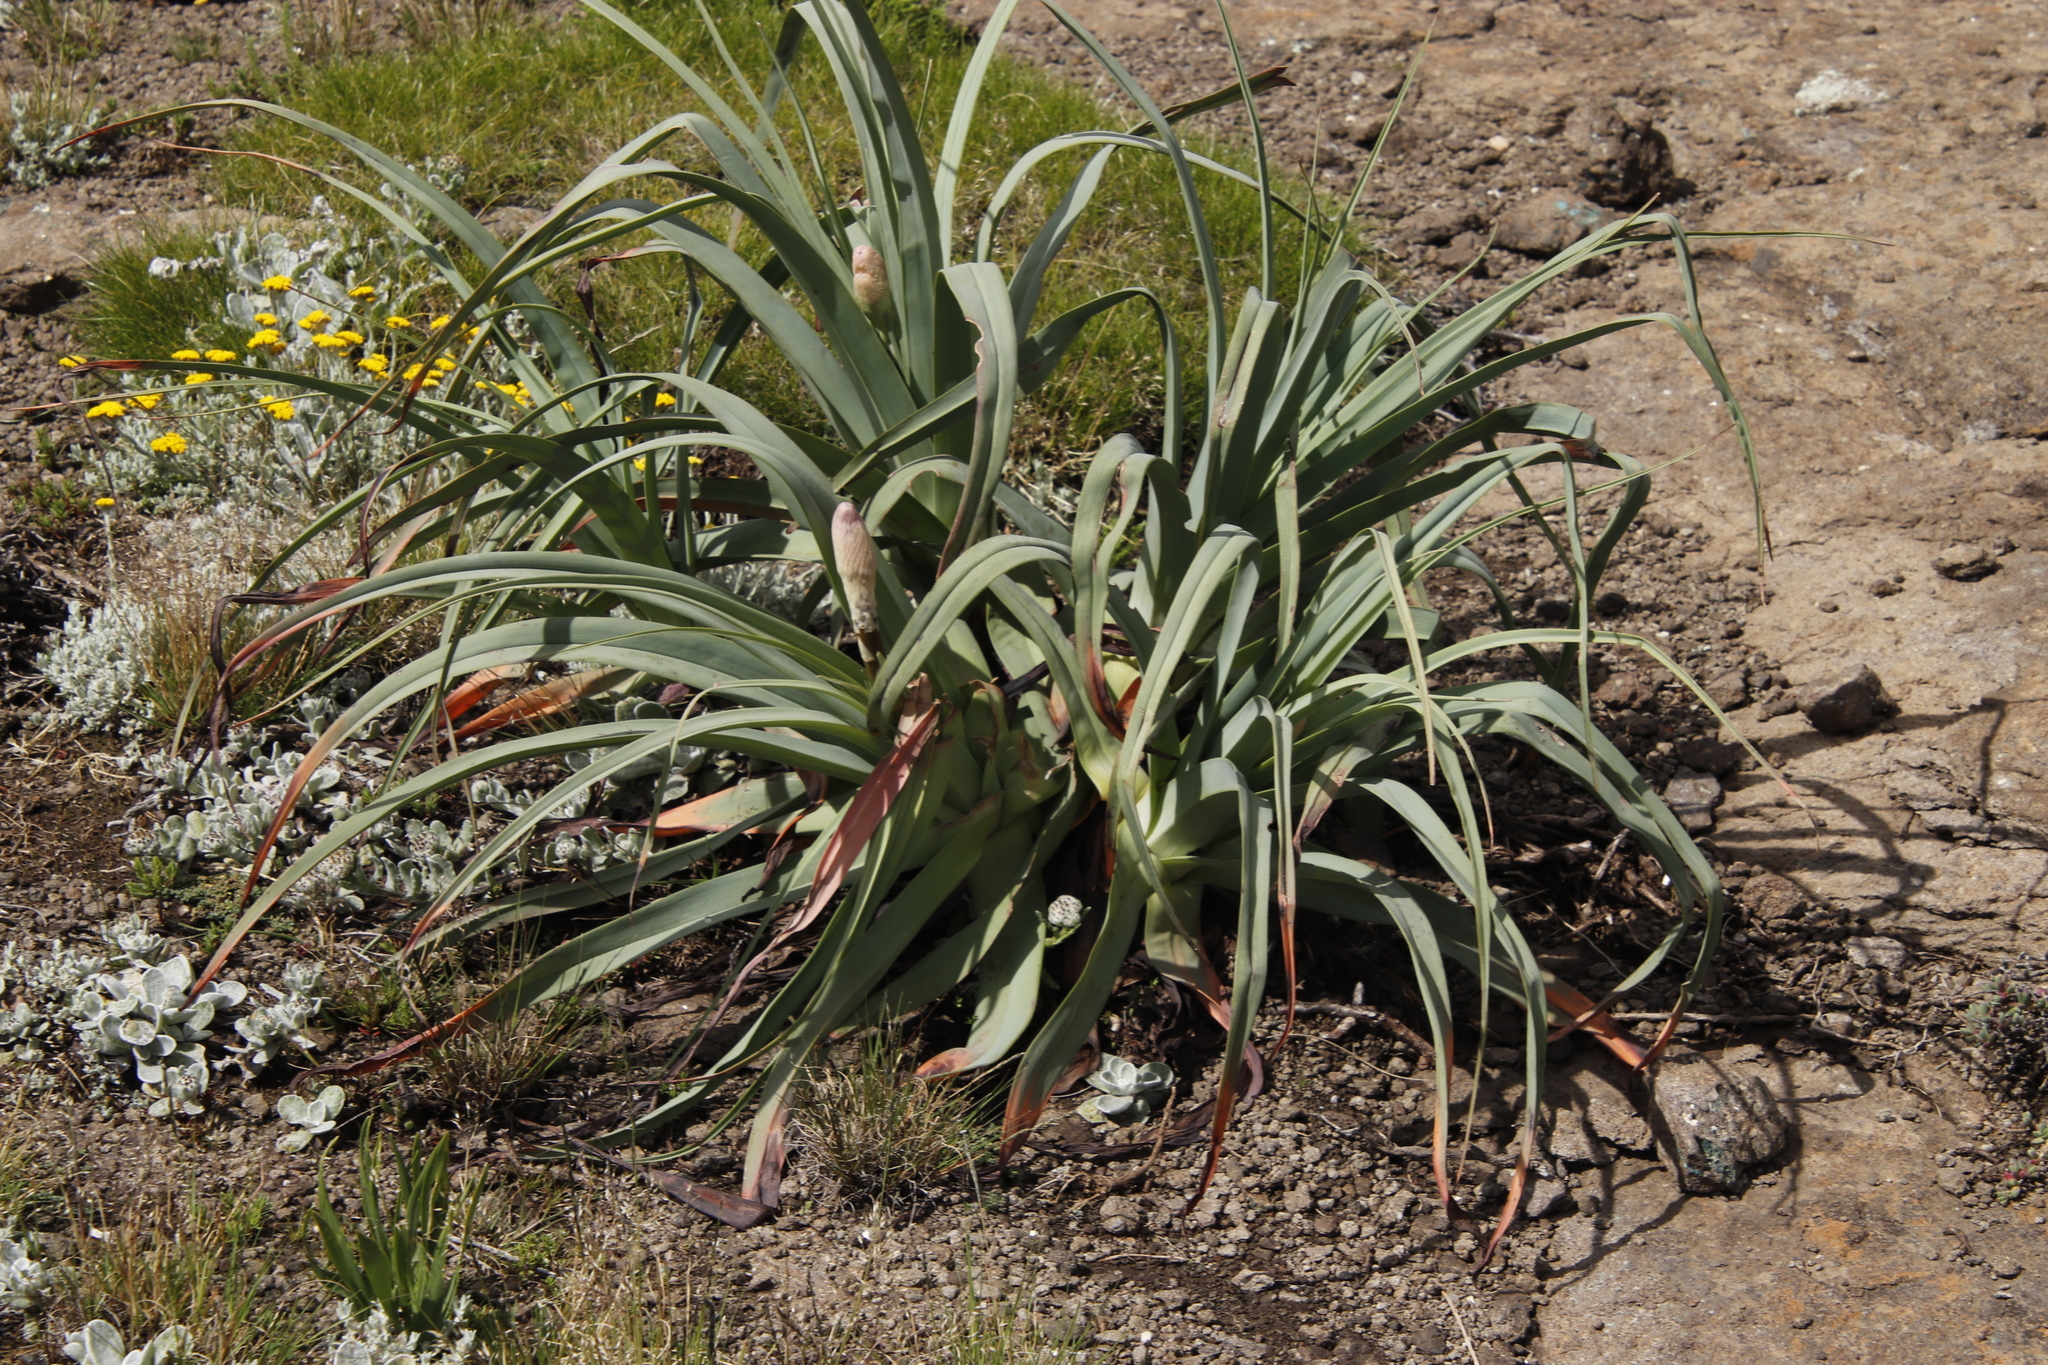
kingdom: Plantae
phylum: Tracheophyta
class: Liliopsida
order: Asparagales
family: Asphodelaceae
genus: Kniphofia
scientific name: Kniphofia caulescens
